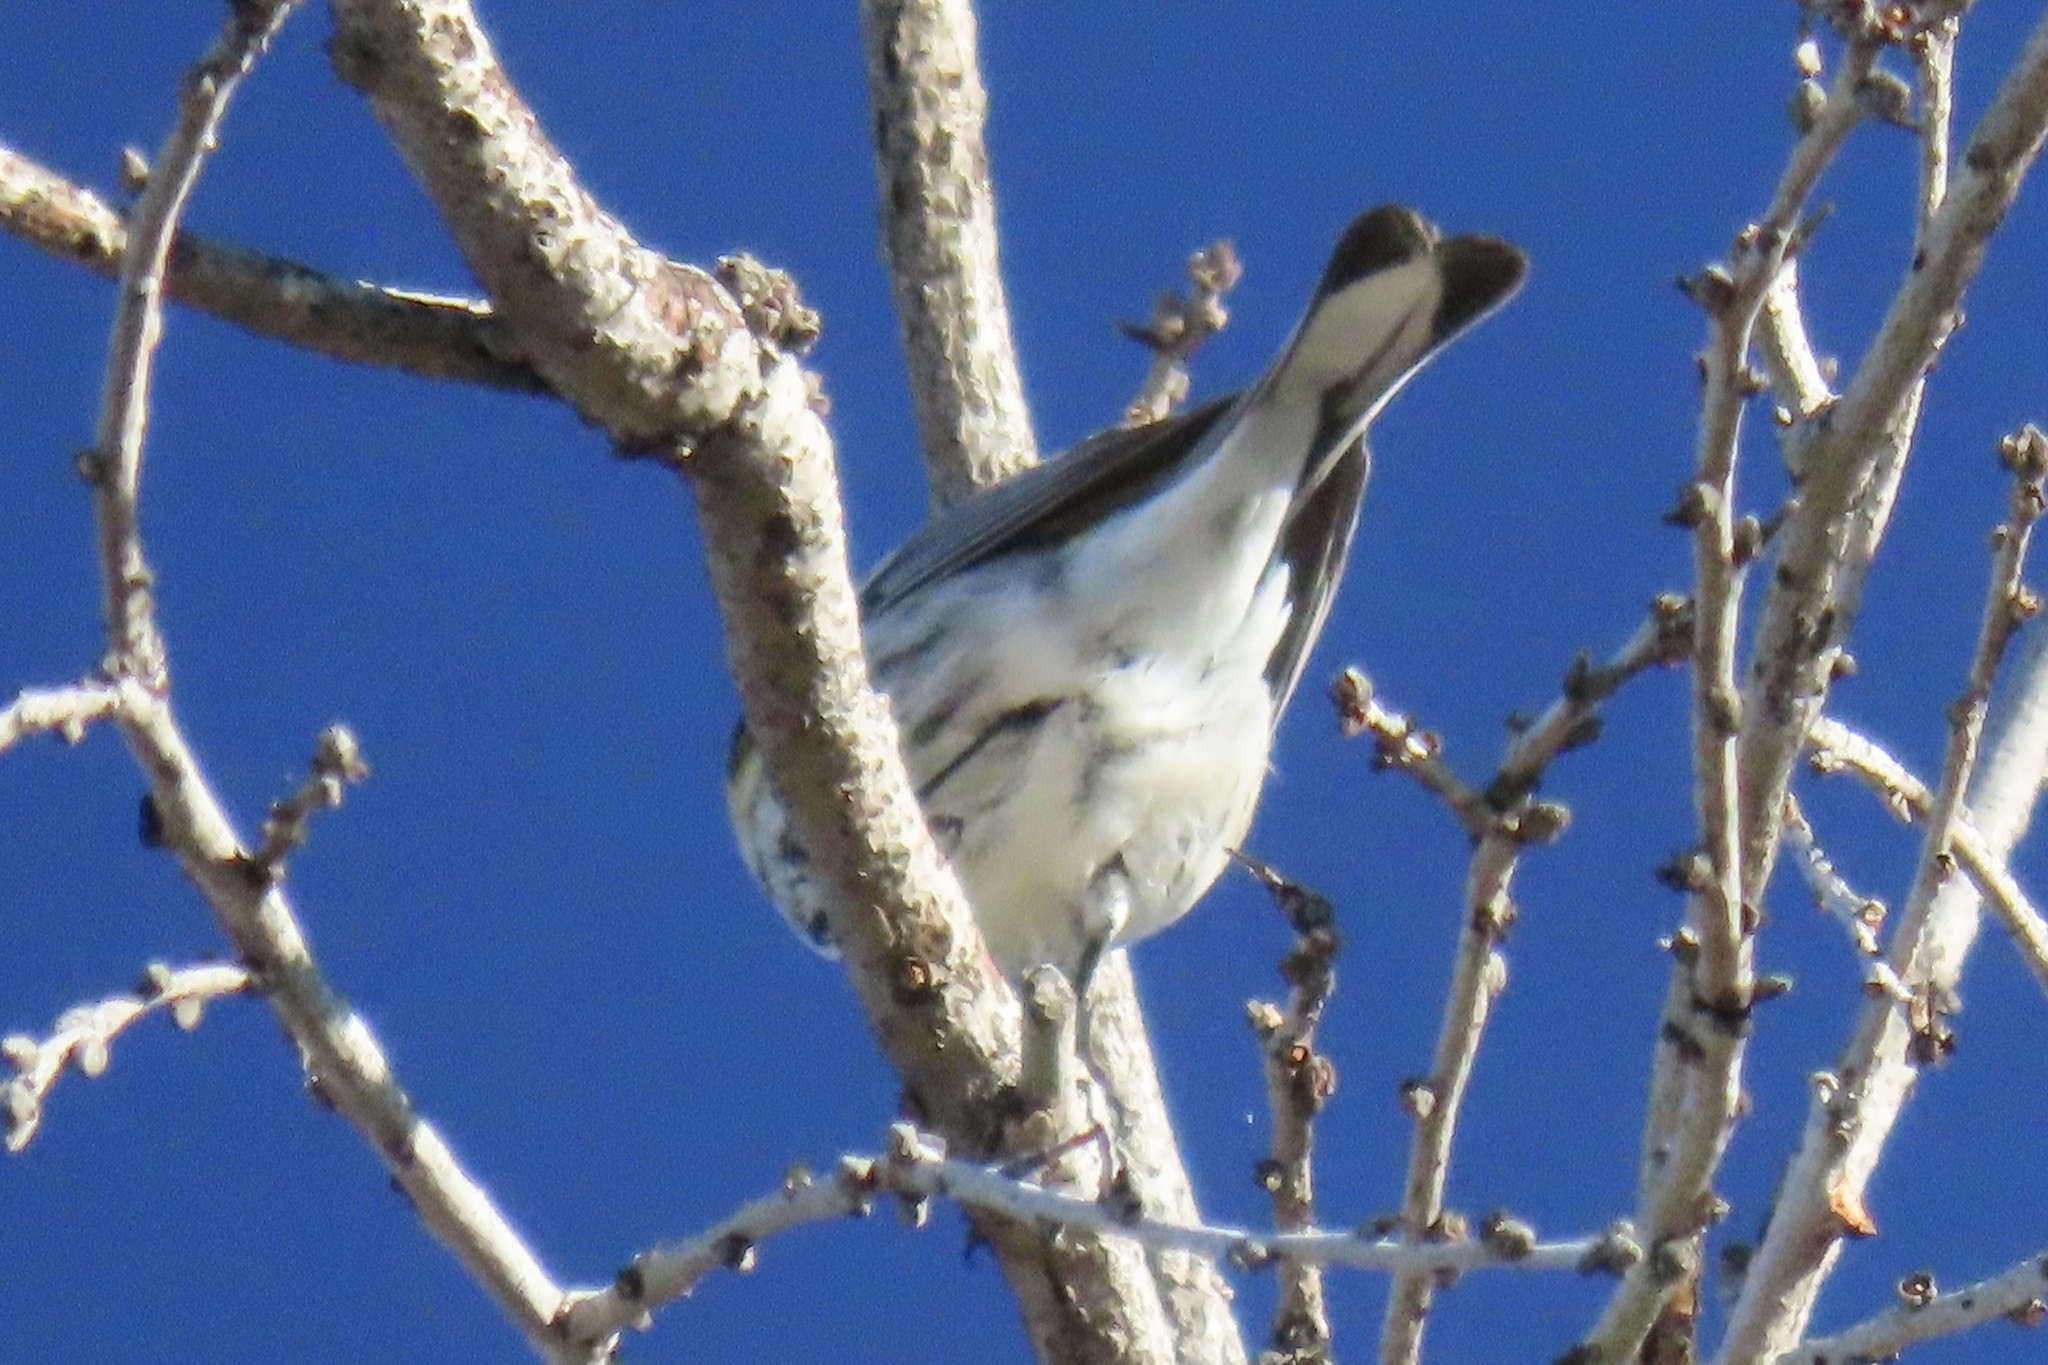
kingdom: Animalia
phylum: Chordata
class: Aves
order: Passeriformes
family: Parulidae
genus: Setophaga
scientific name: Setophaga coronata
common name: Myrtle warbler
